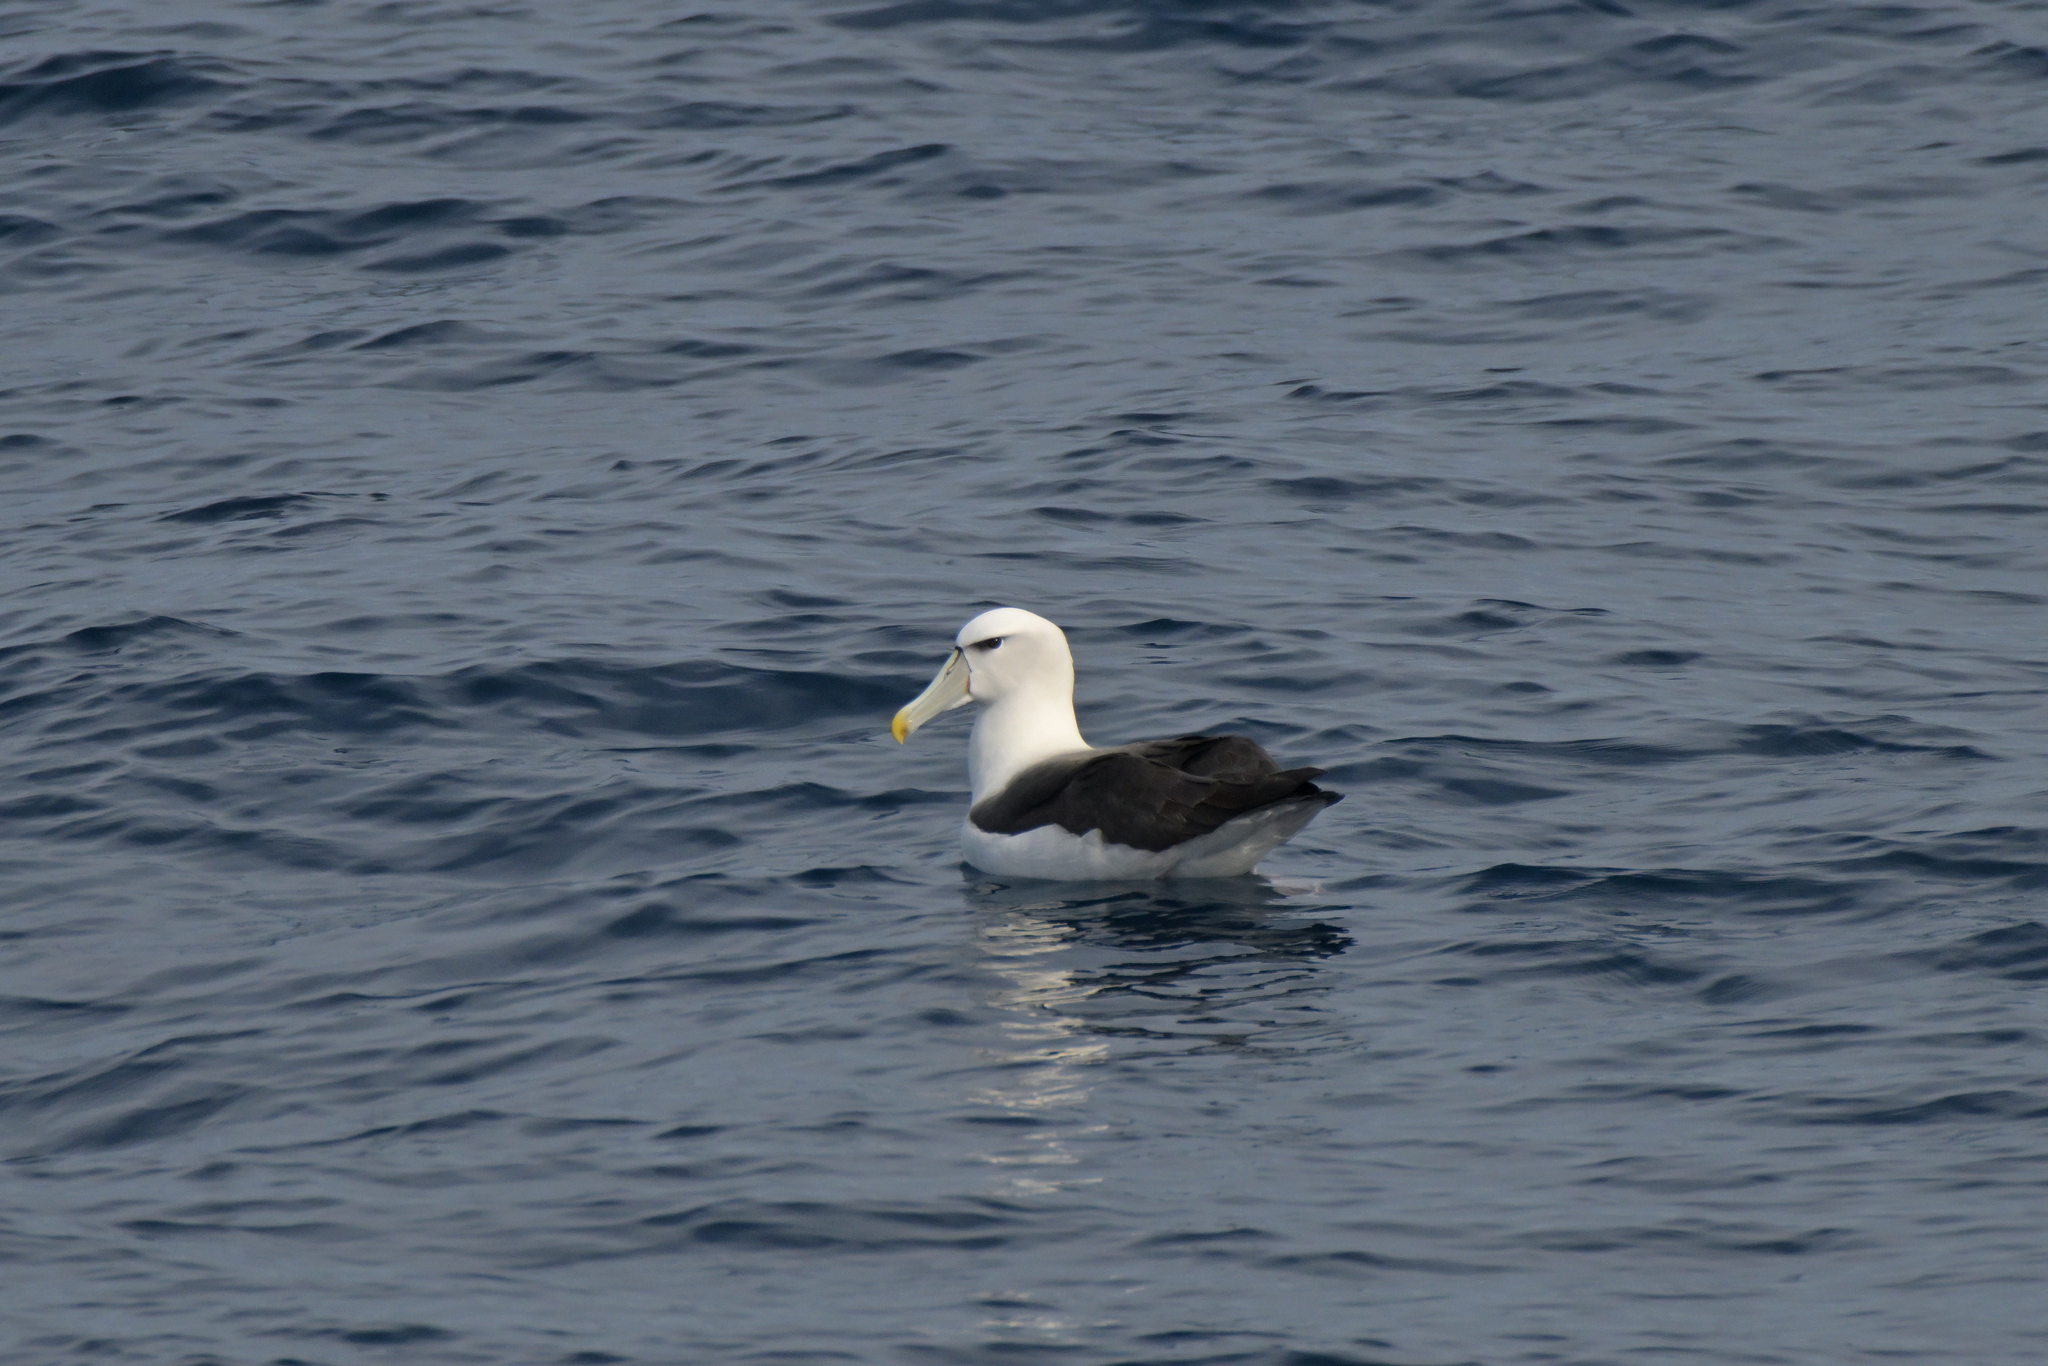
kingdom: Animalia
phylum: Chordata
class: Aves
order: Procellariiformes
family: Diomedeidae
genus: Thalassarche
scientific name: Thalassarche cauta
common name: Shy albatross
